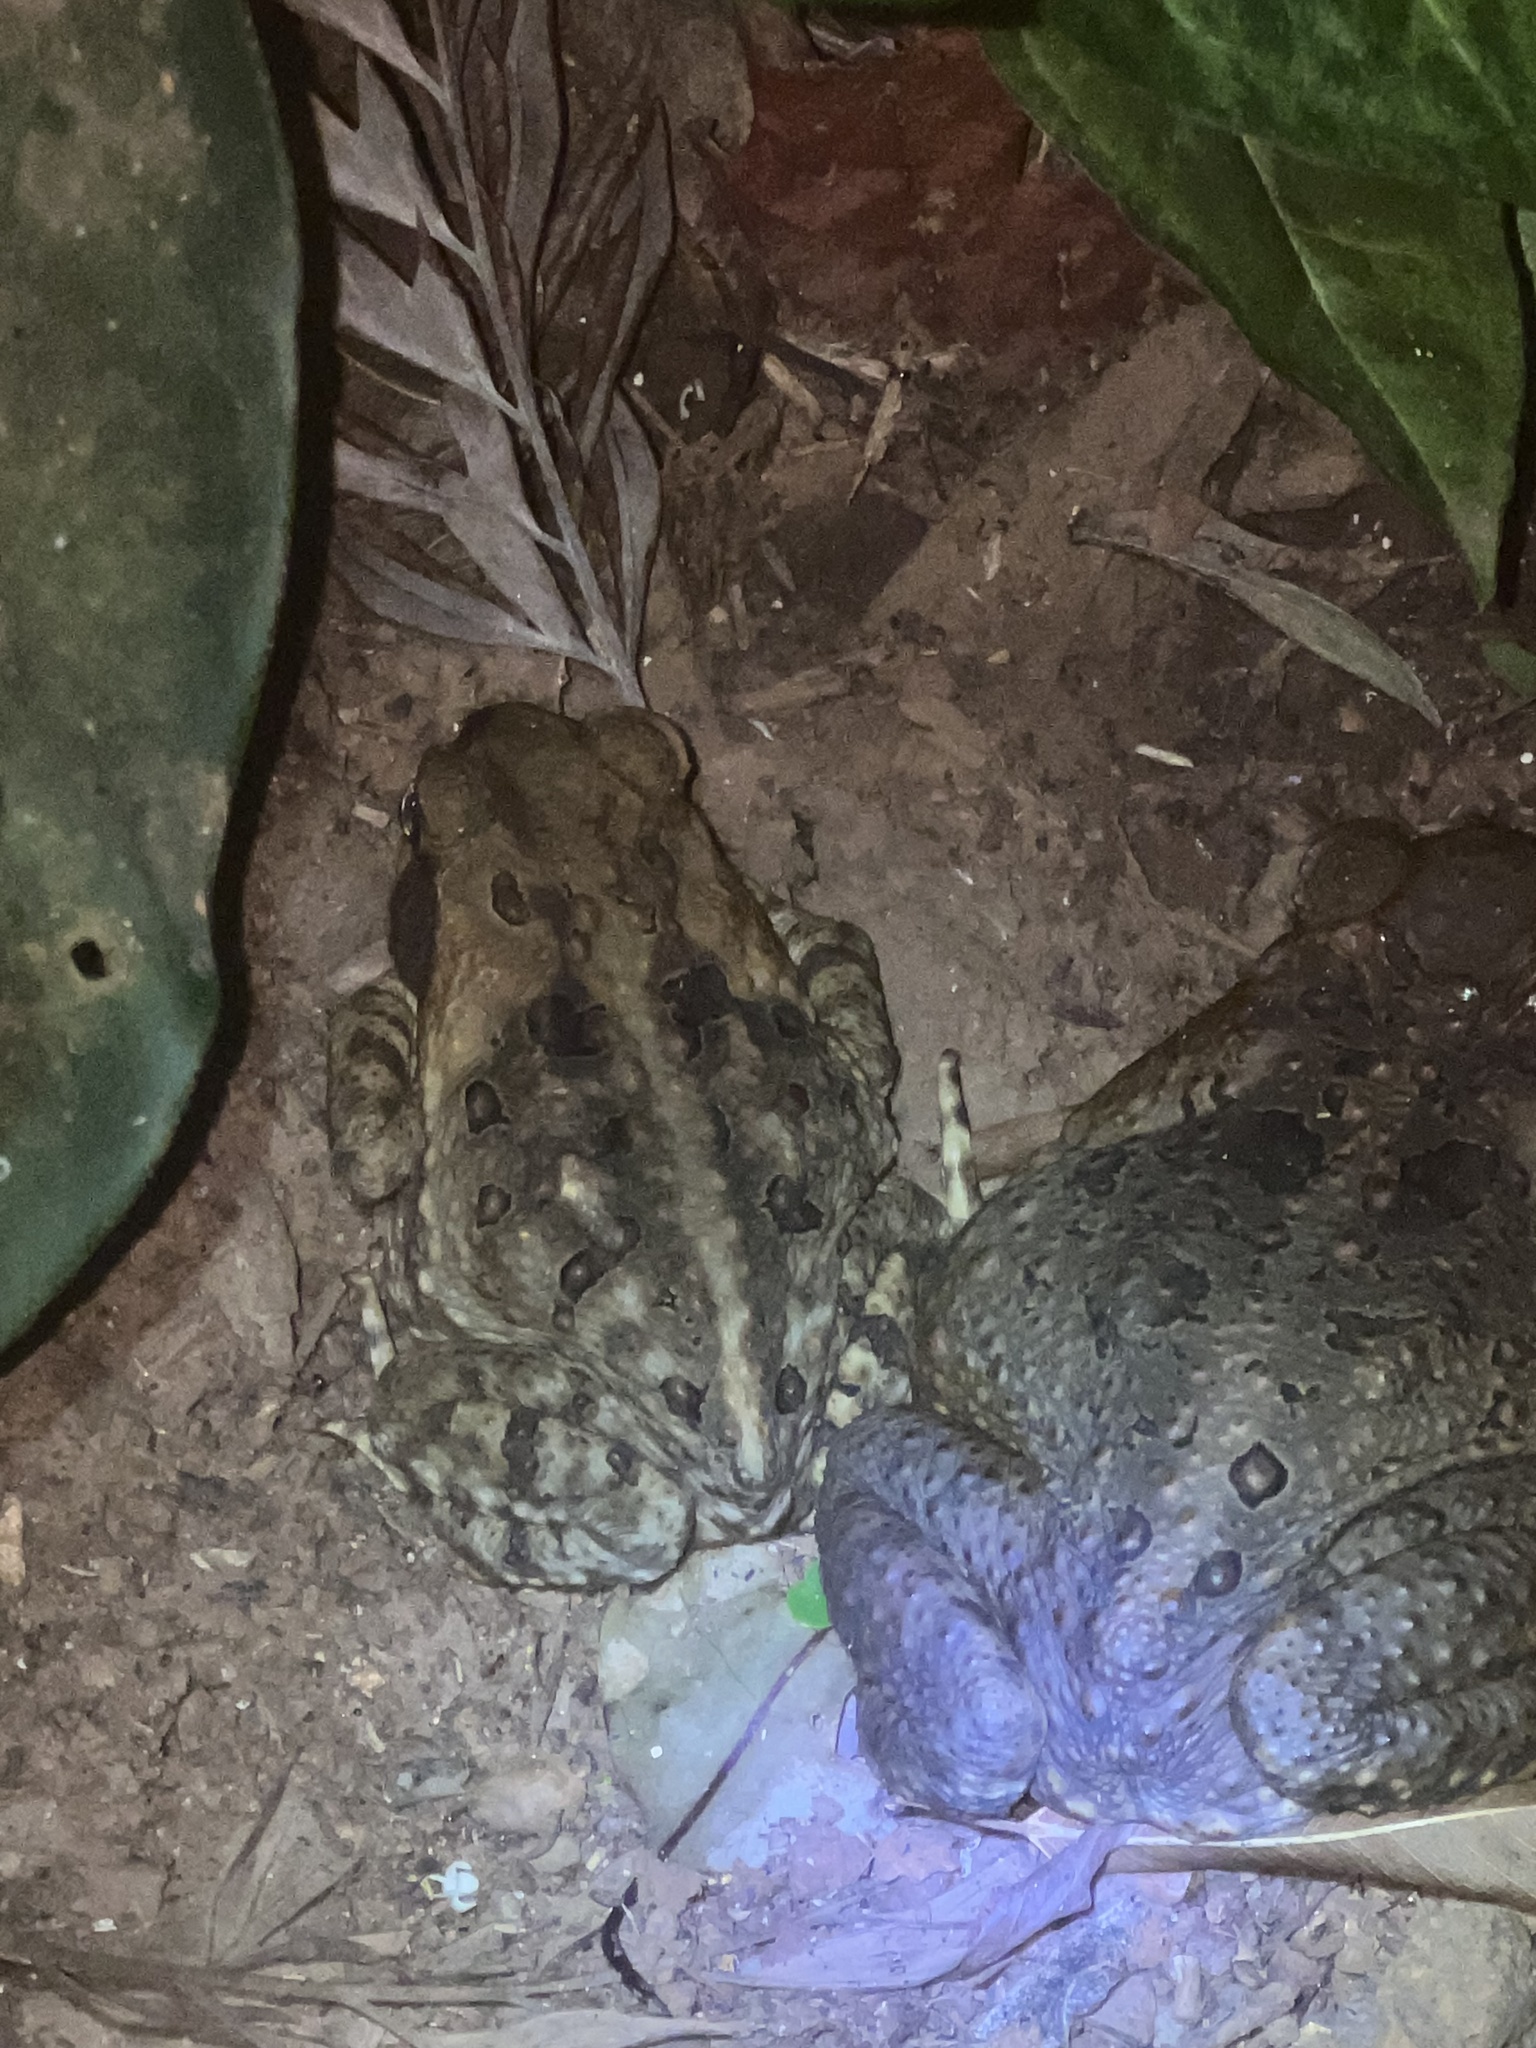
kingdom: Animalia
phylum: Chordata
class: Amphibia
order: Anura
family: Bufonidae
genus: Rhinella
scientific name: Rhinella marina
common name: Cane toad
